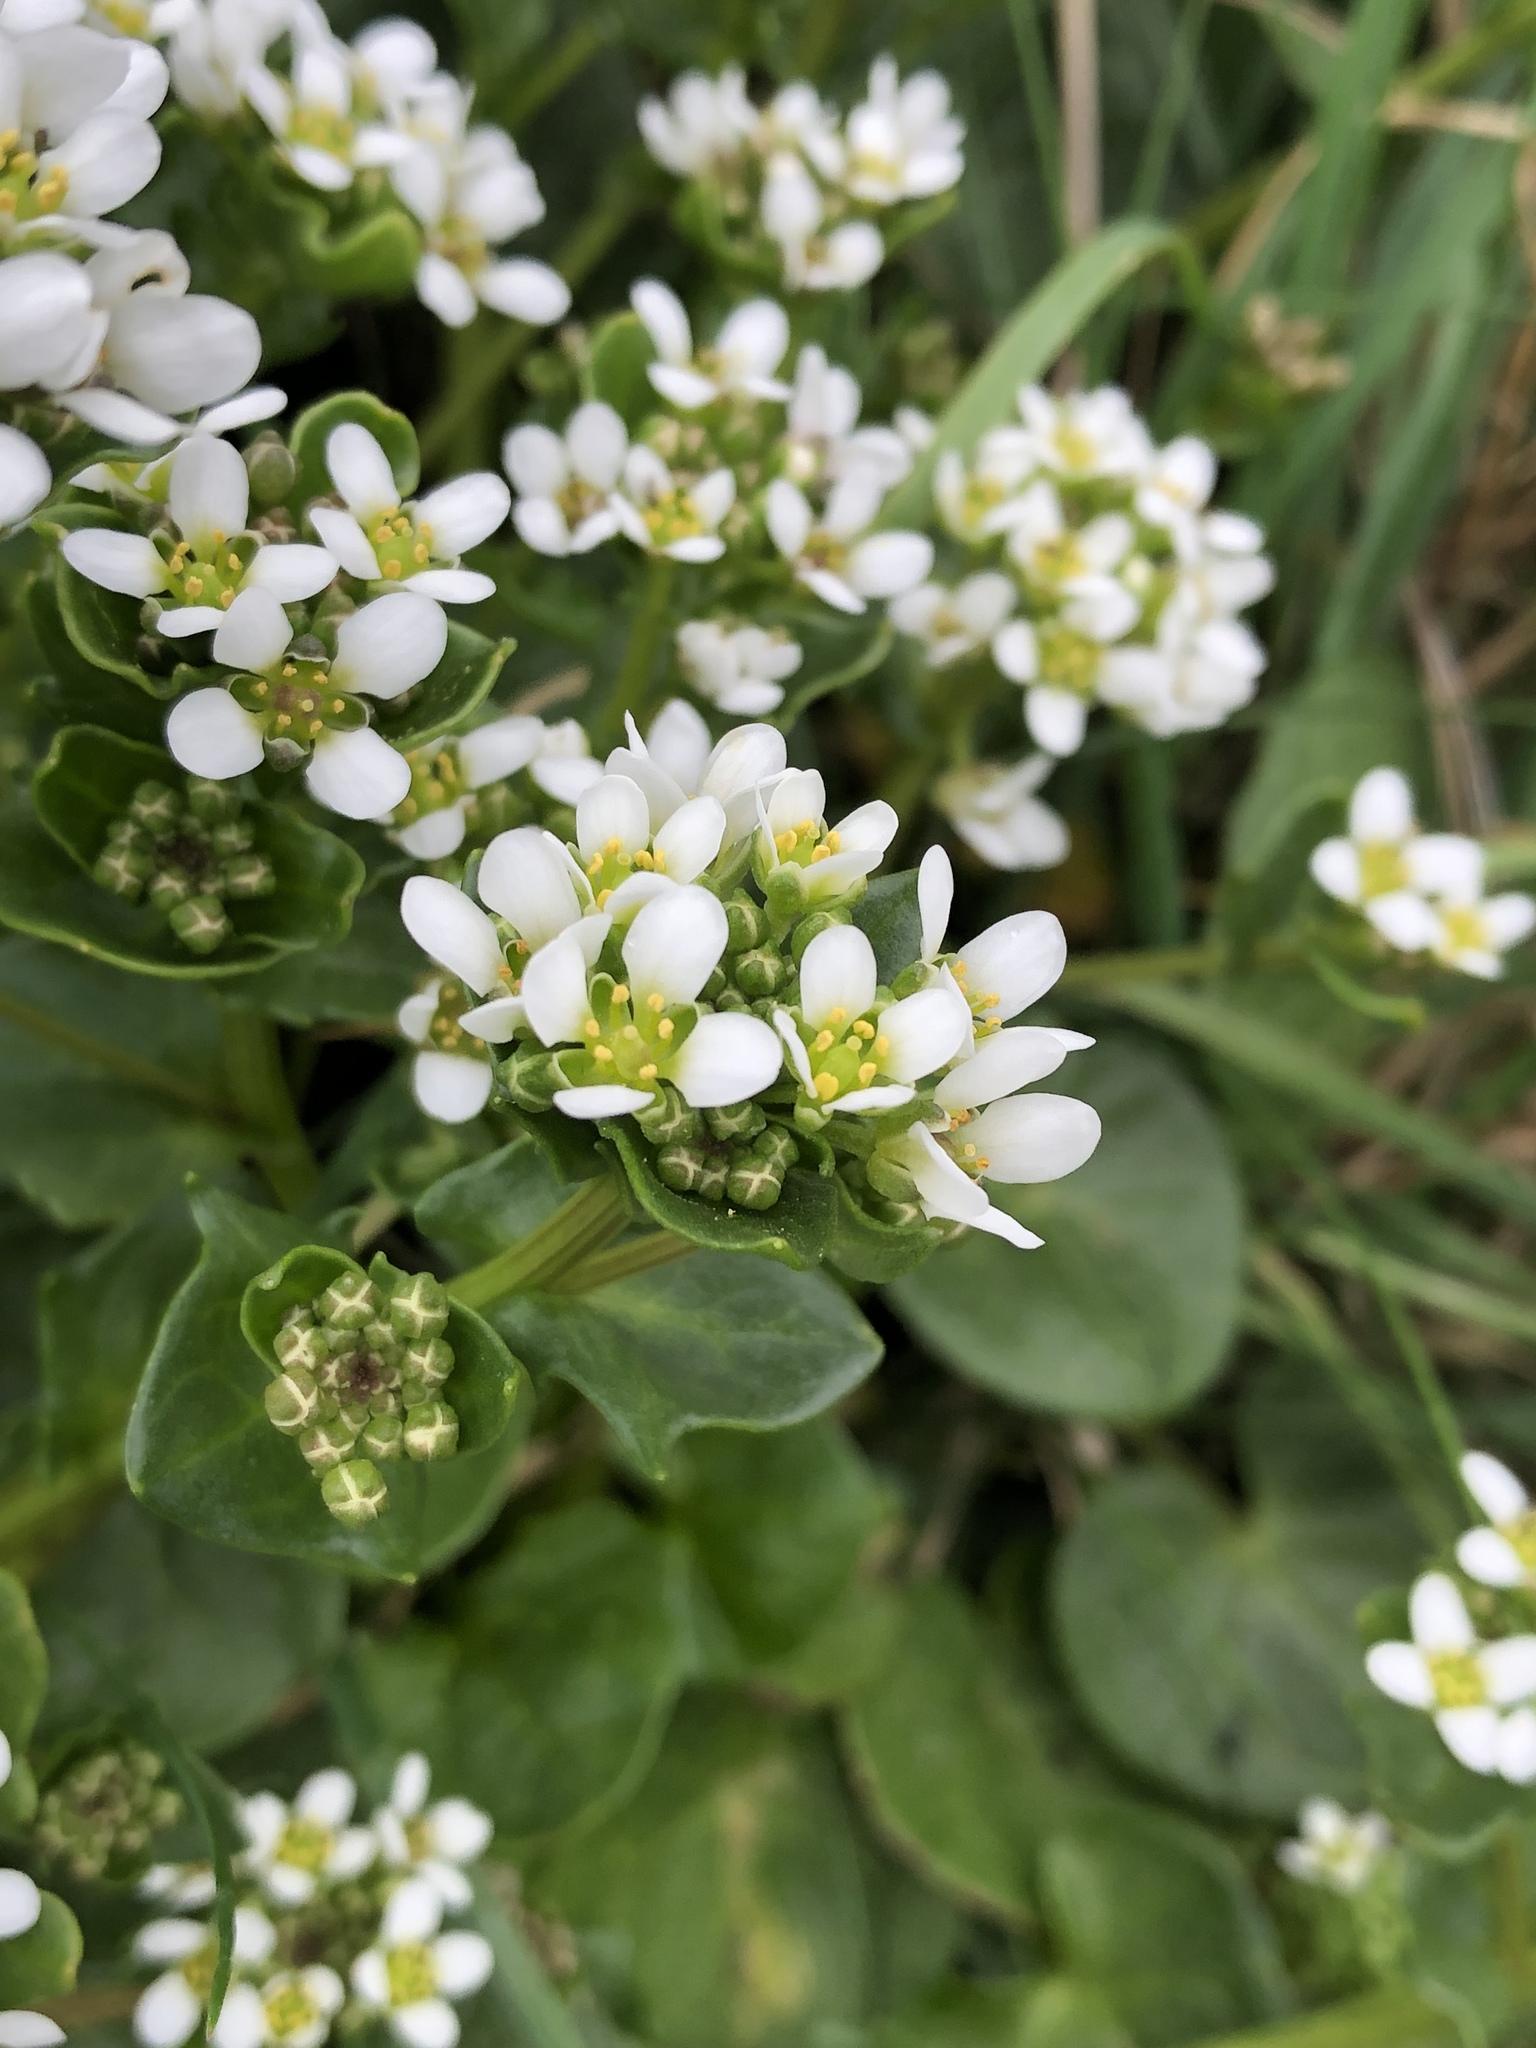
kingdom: Plantae
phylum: Tracheophyta
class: Magnoliopsida
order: Brassicales
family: Brassicaceae
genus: Cochlearia
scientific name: Cochlearia officinalis
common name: Scurvy-grass
